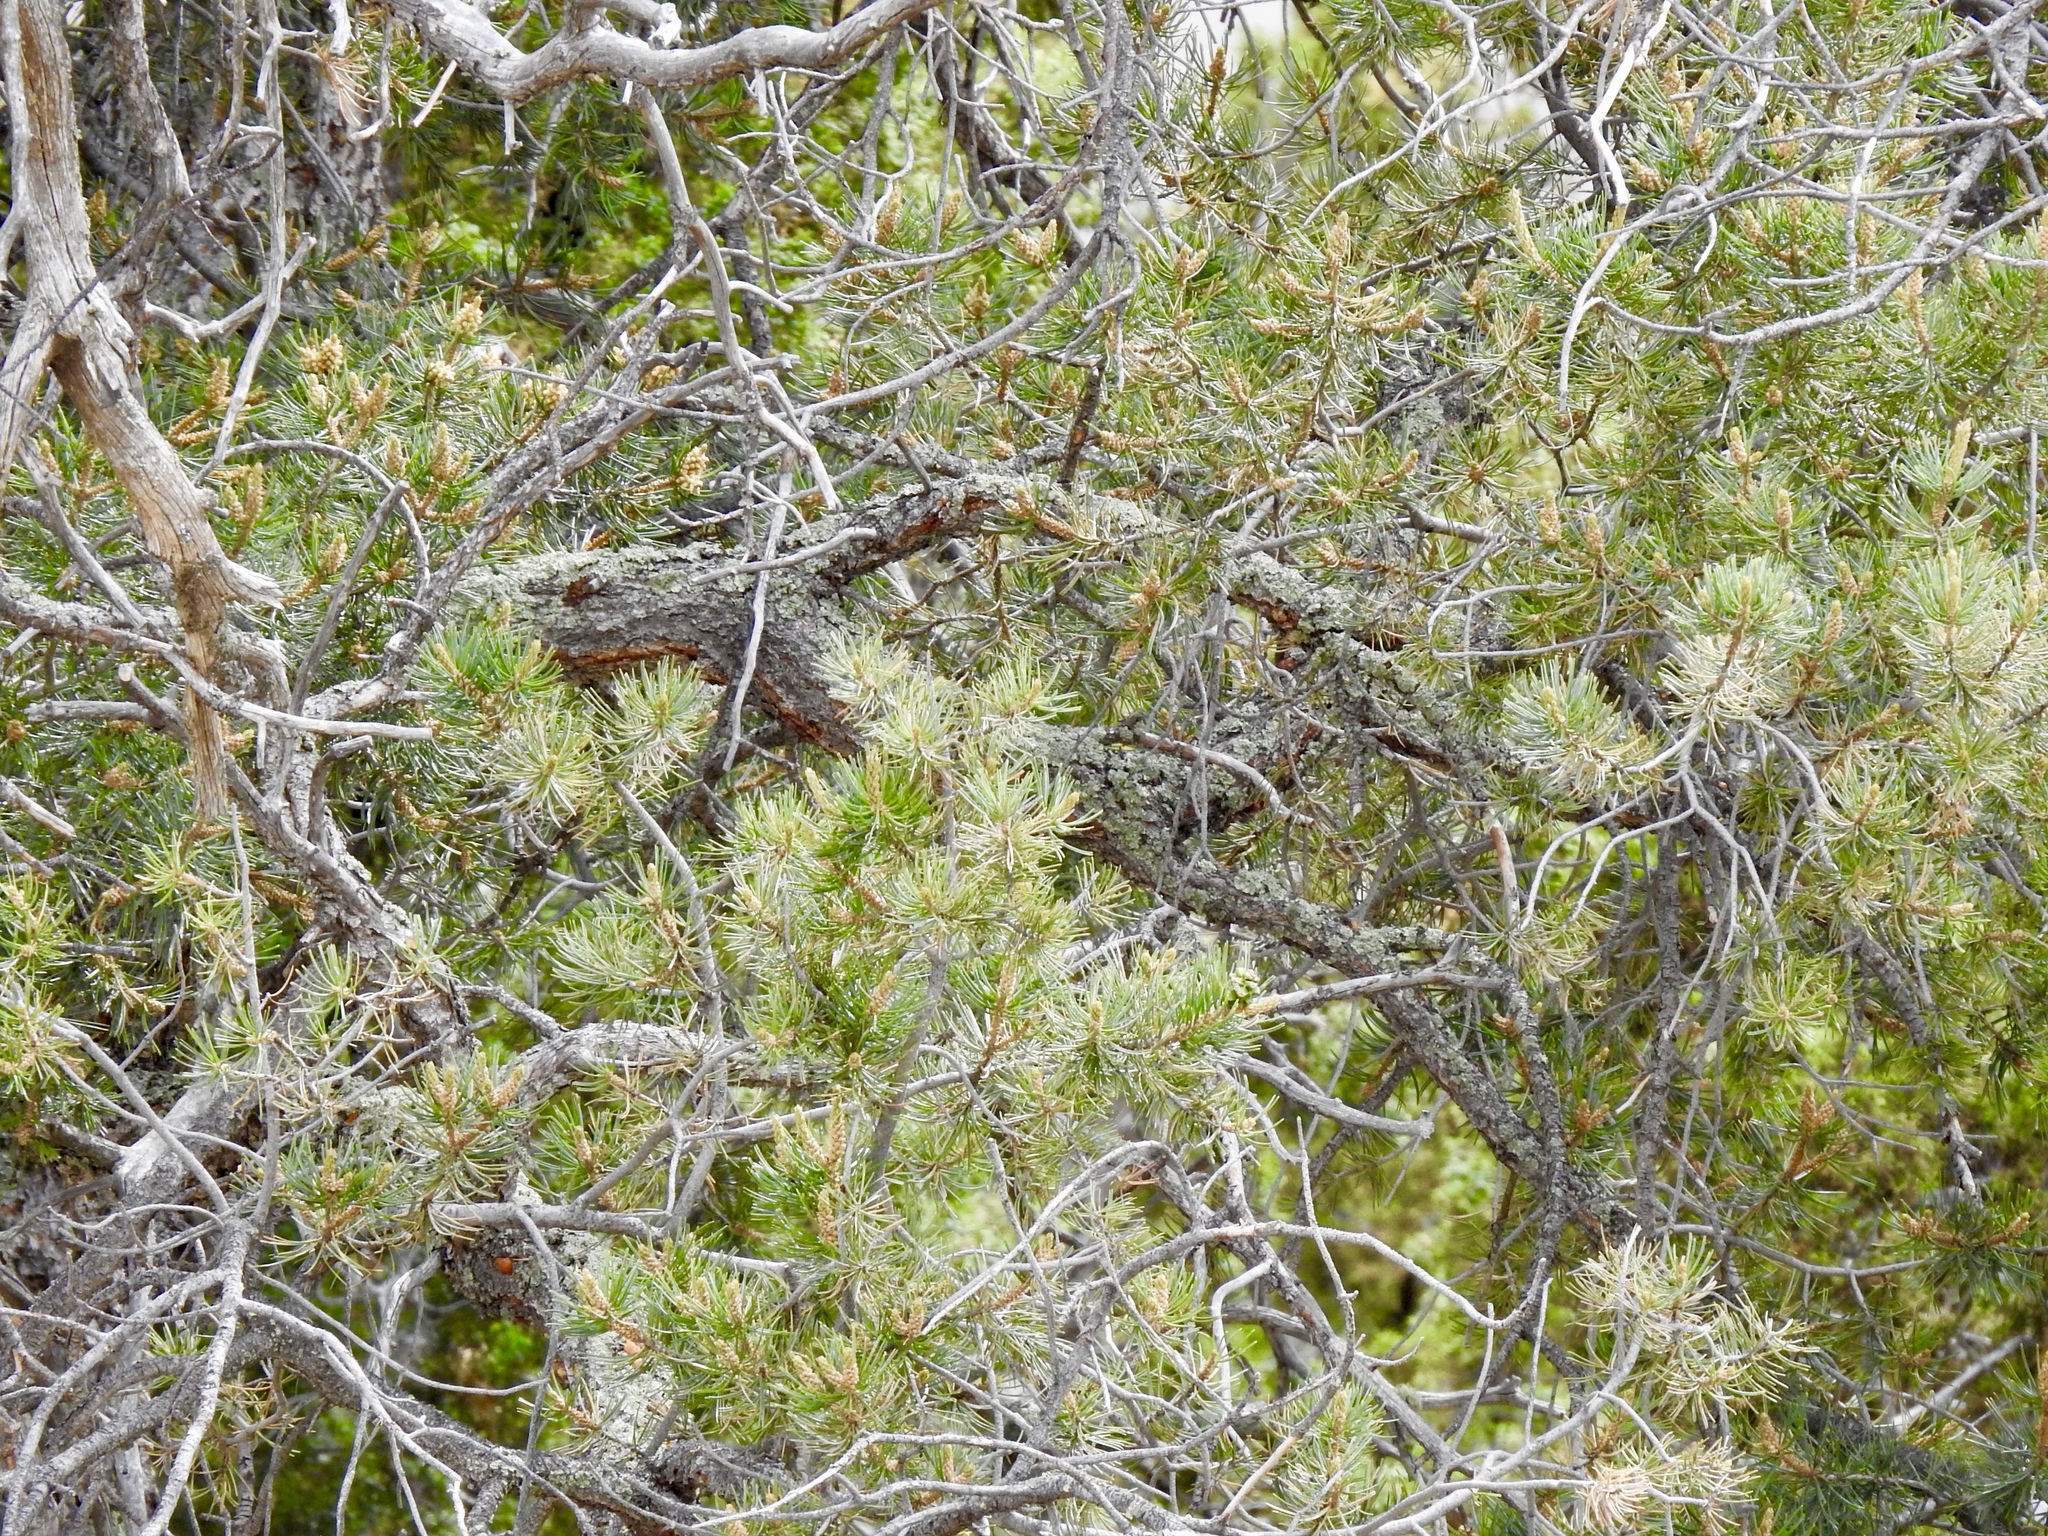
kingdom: Plantae
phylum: Tracheophyta
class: Pinopsida
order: Pinales
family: Pinaceae
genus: Pinus
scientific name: Pinus edulis
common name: Colorado pinyon
